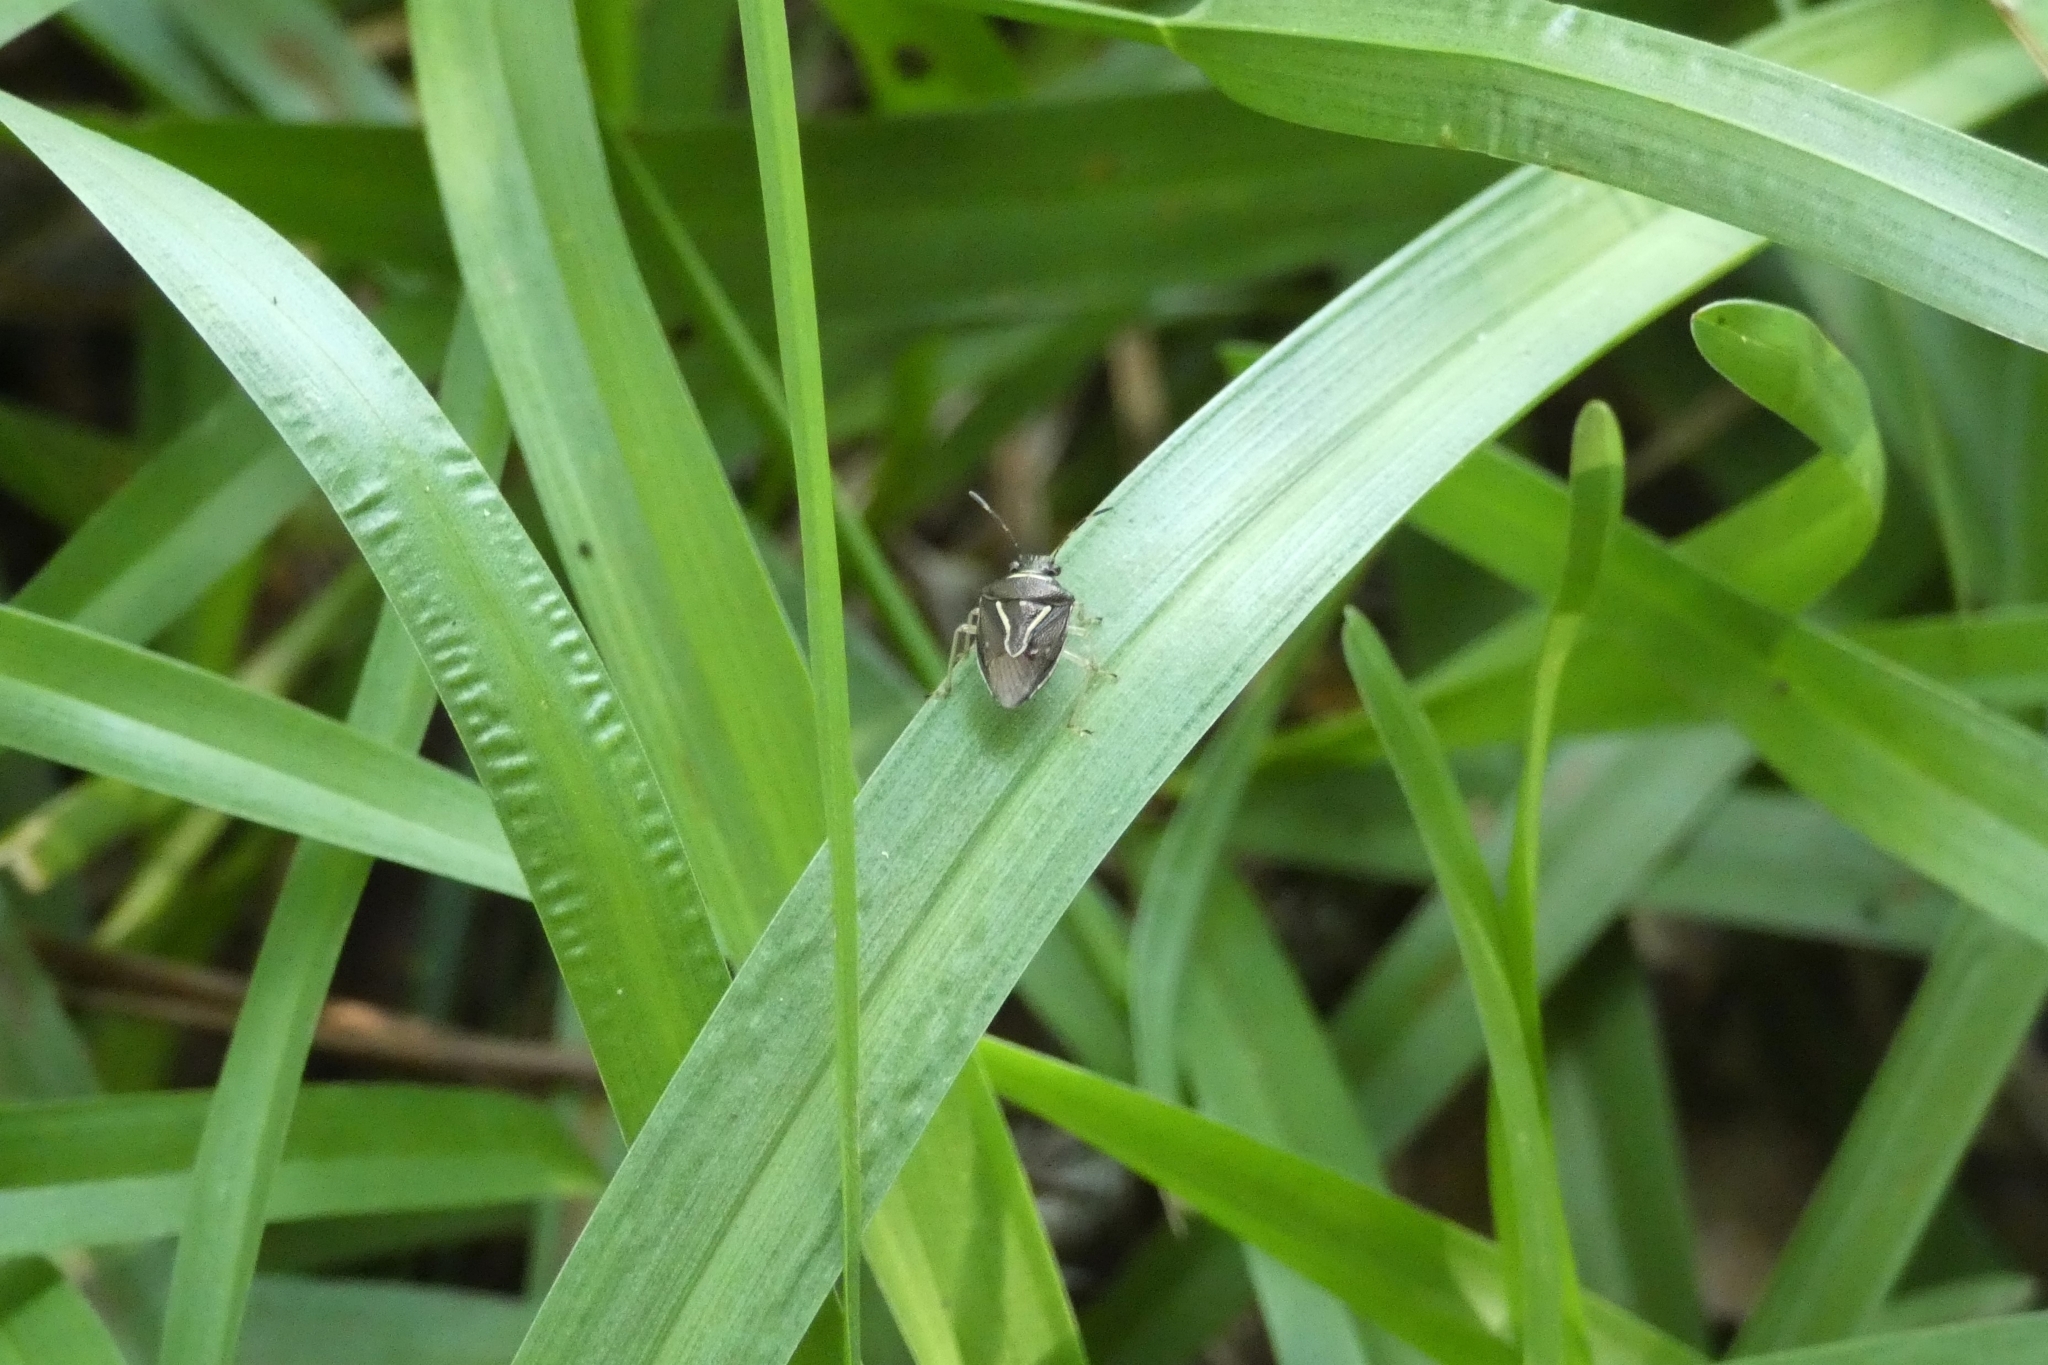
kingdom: Animalia
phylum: Arthropoda
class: Insecta
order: Hemiptera
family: Pentatomidae
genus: Mormidea
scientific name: Mormidea lugens
